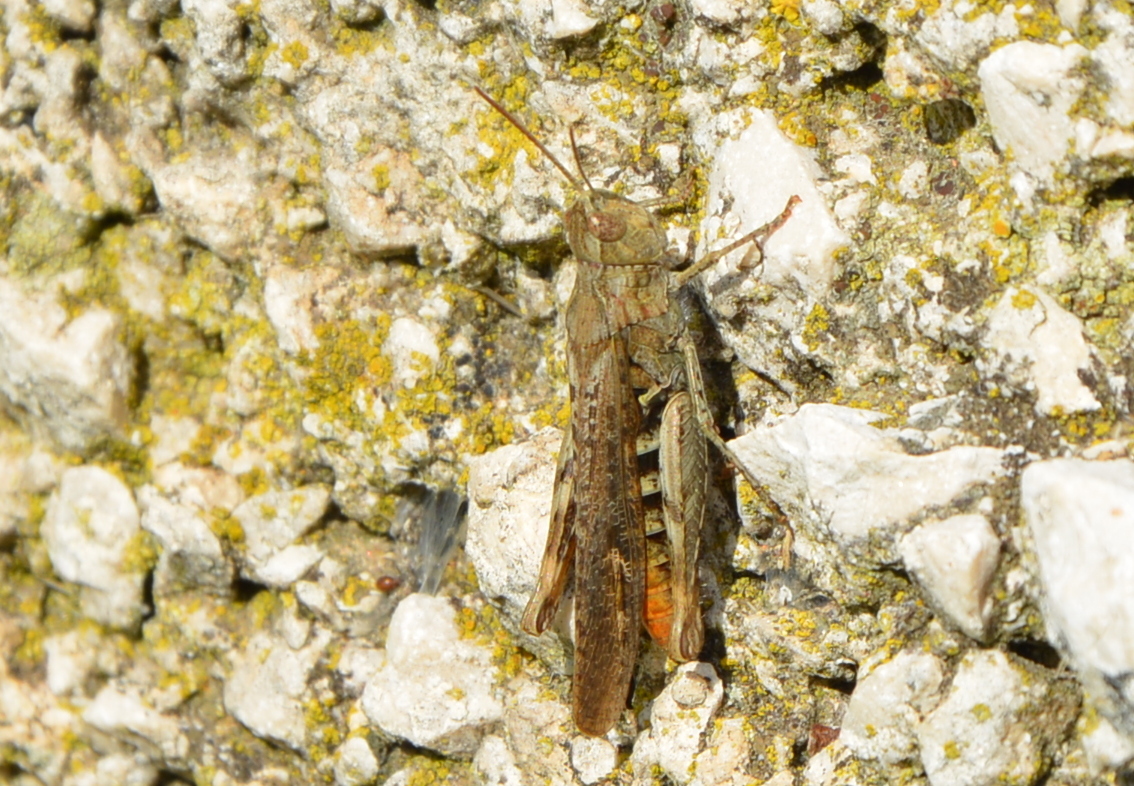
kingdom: Animalia
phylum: Arthropoda
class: Insecta
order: Orthoptera
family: Acrididae
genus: Chorthippus
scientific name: Chorthippus maritimus
